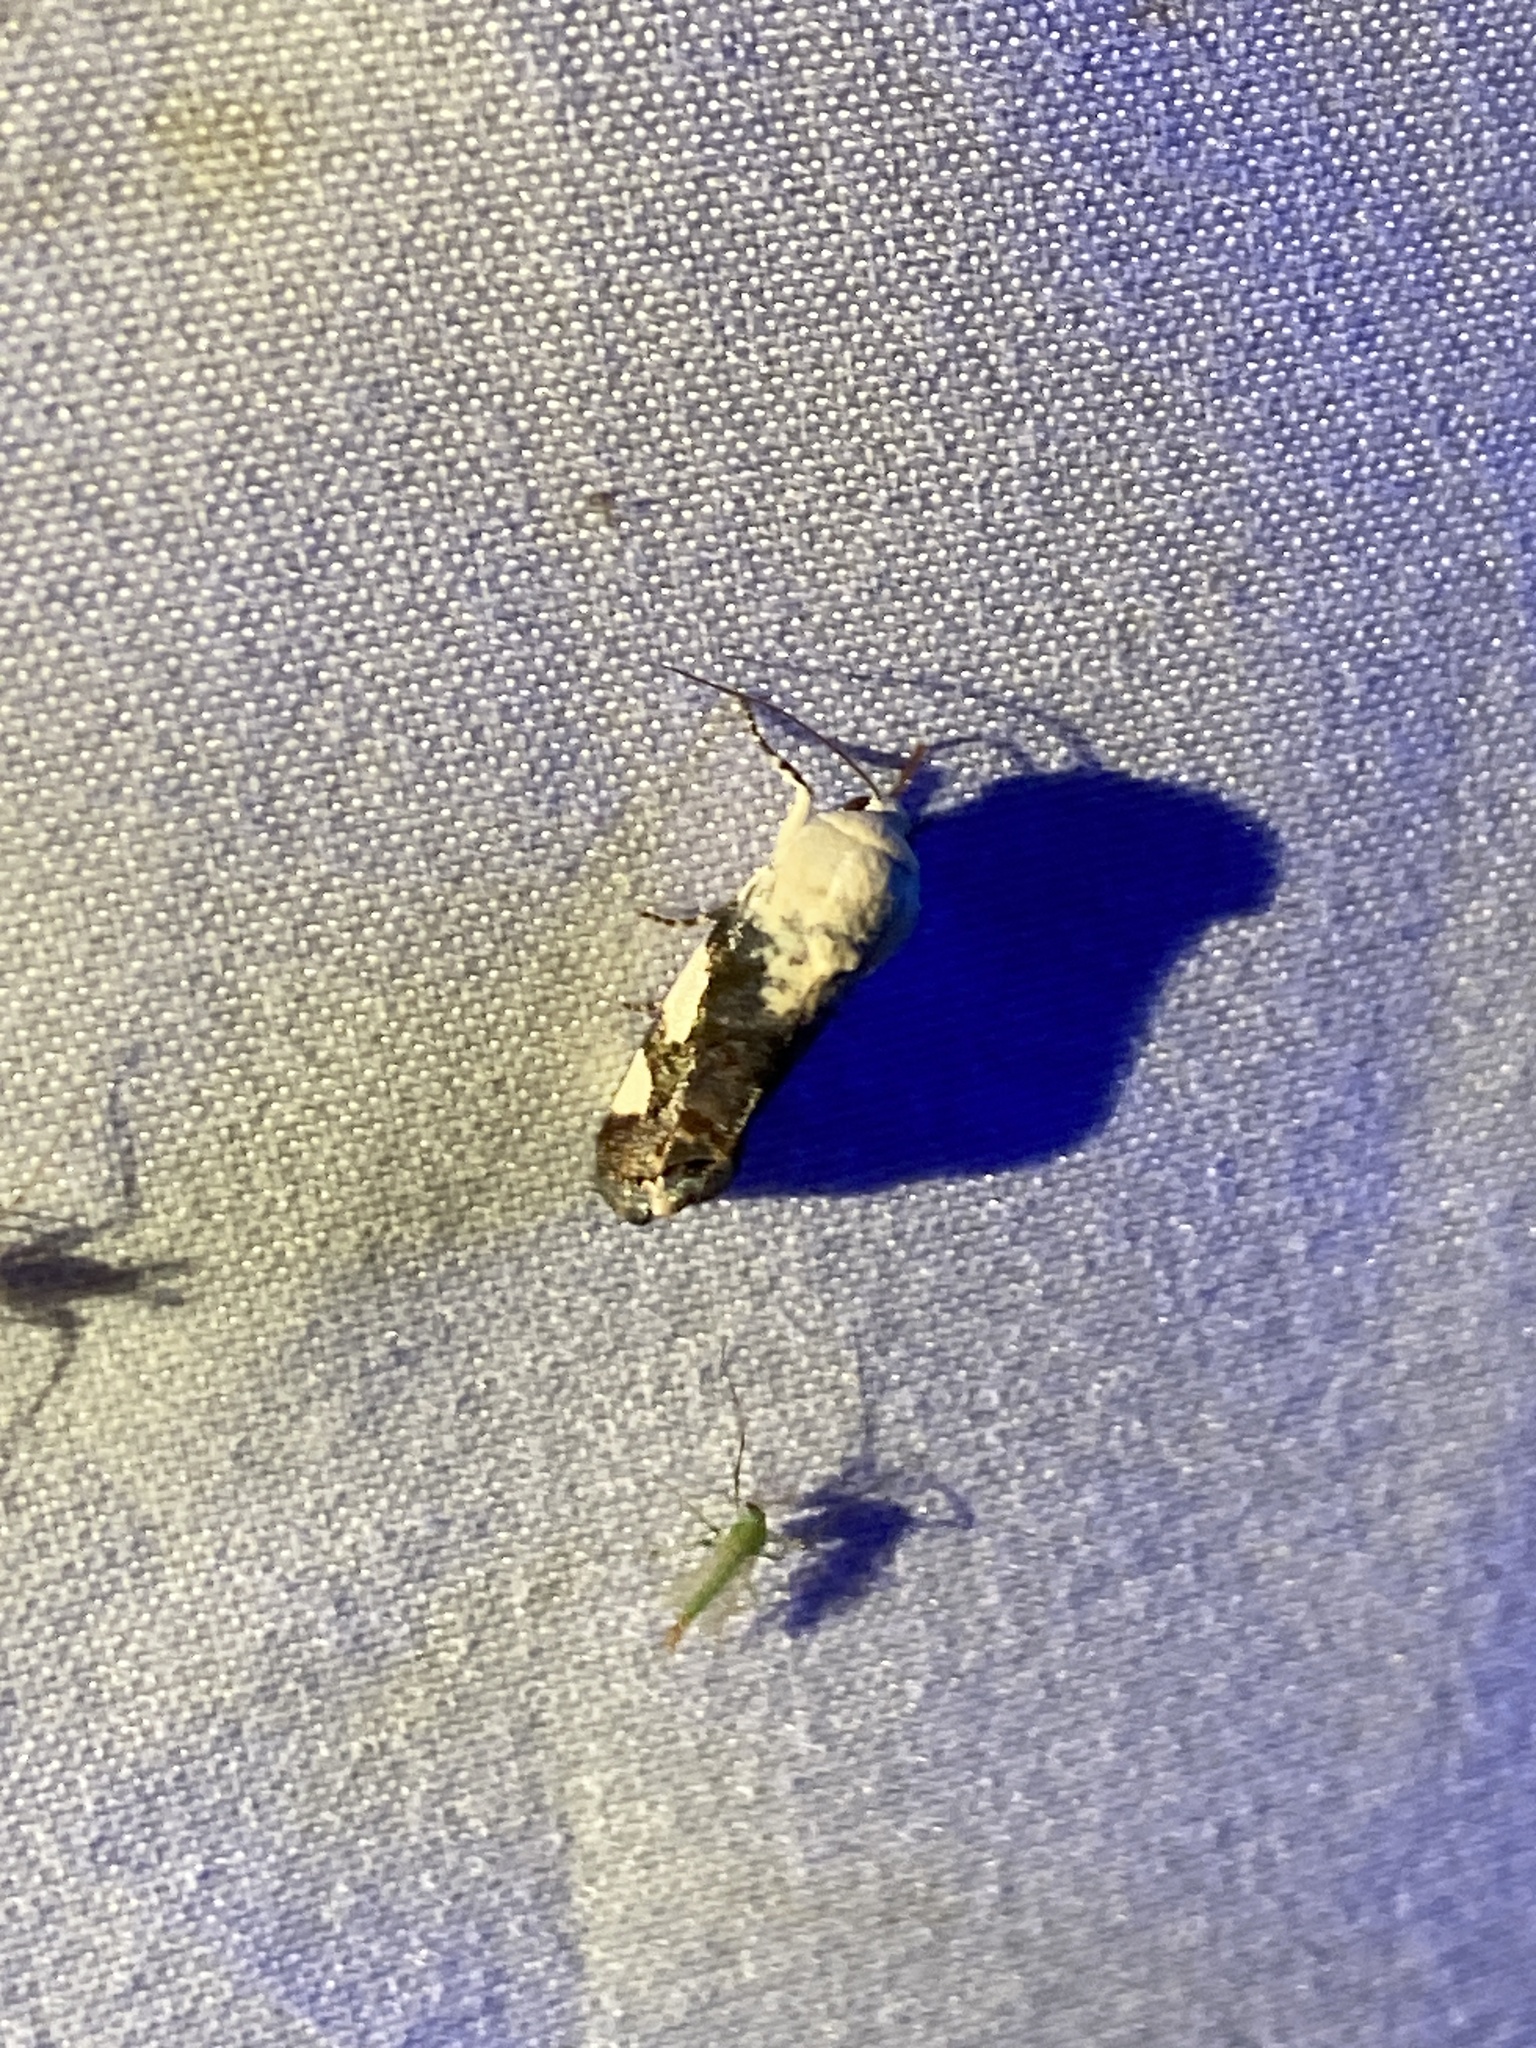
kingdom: Animalia
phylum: Arthropoda
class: Insecta
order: Lepidoptera
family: Noctuidae
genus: Acontia
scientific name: Acontia quadriplaga
